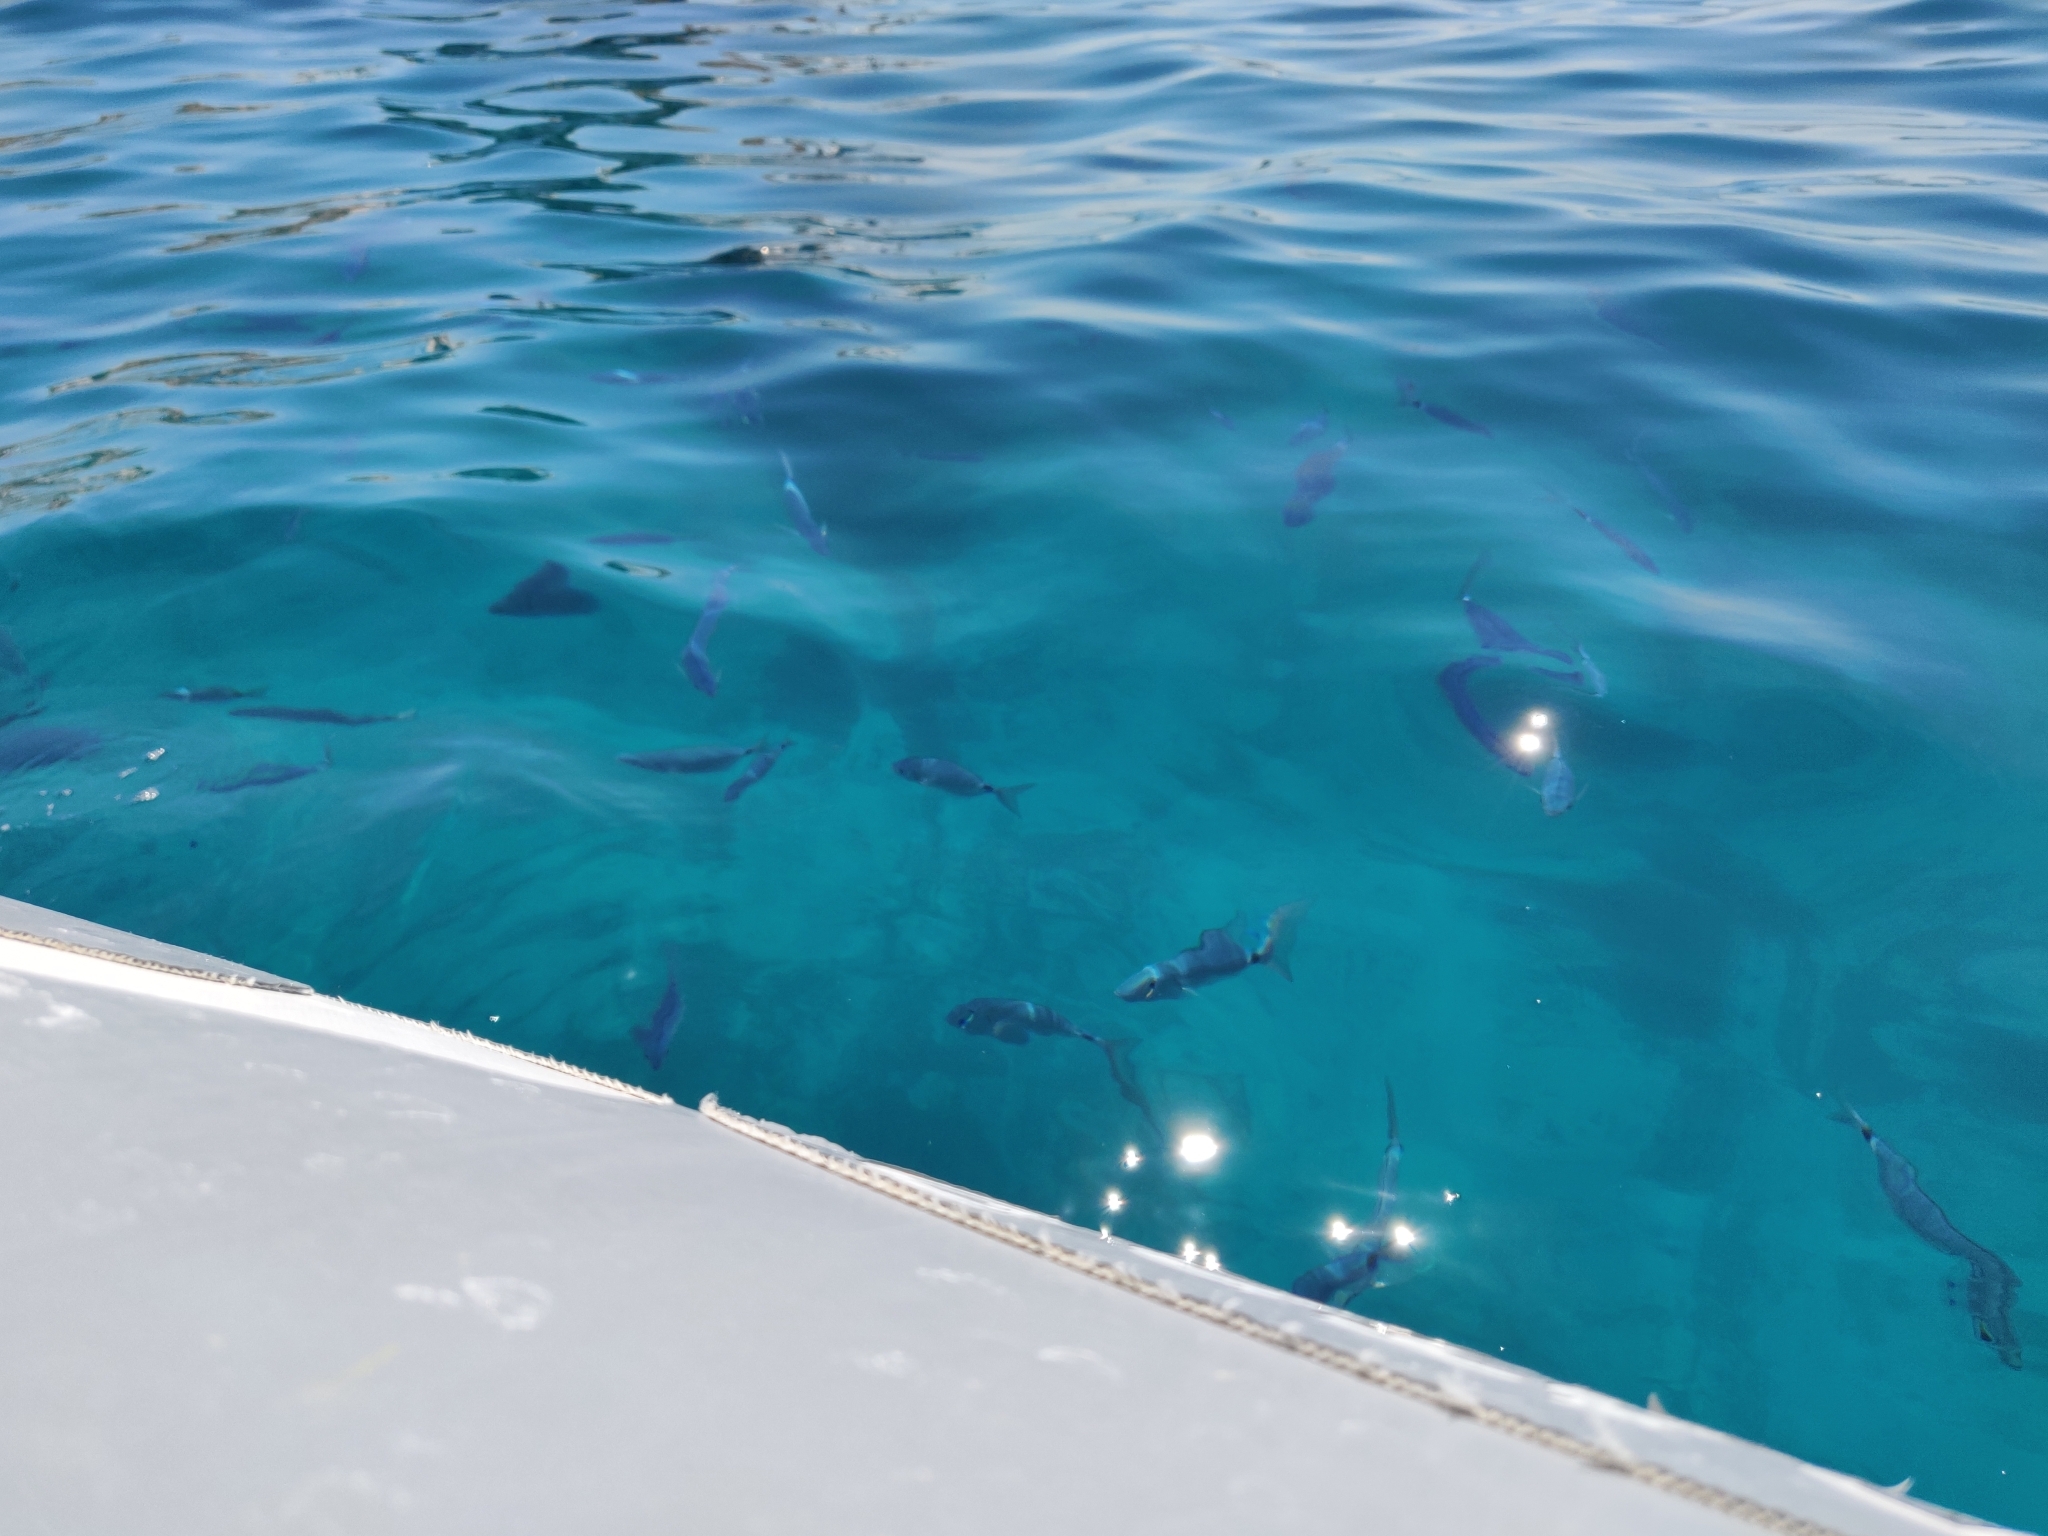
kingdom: Animalia
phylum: Chordata
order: Perciformes
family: Sparidae
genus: Oblada
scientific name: Oblada melanura
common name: Saddled seabream
